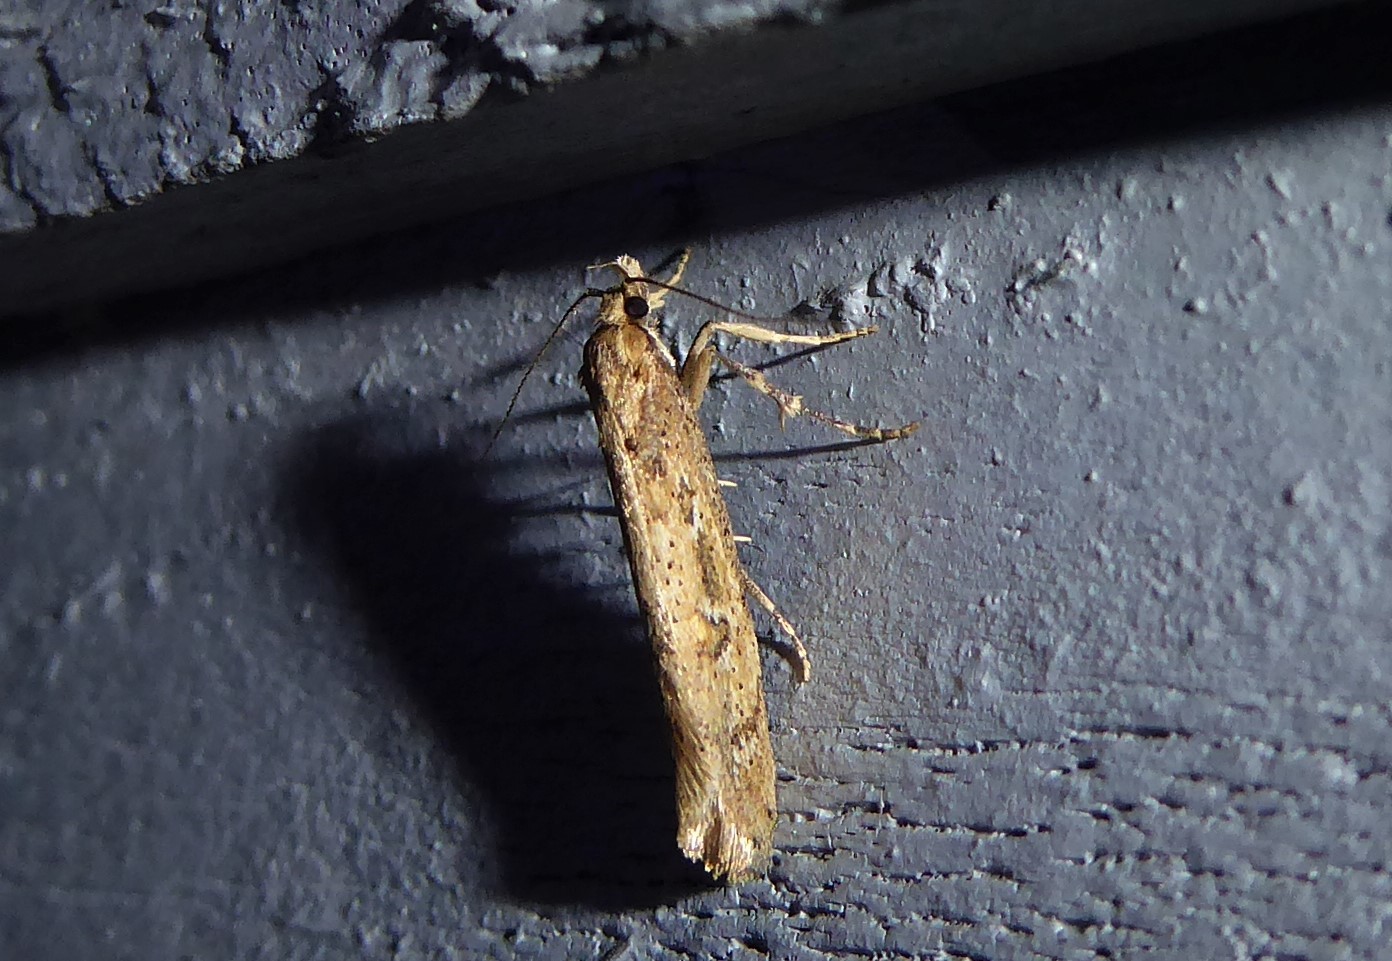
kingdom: Animalia
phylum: Arthropoda
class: Insecta
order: Lepidoptera
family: Oecophoridae
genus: Atomotricha
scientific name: Atomotricha chloronota
